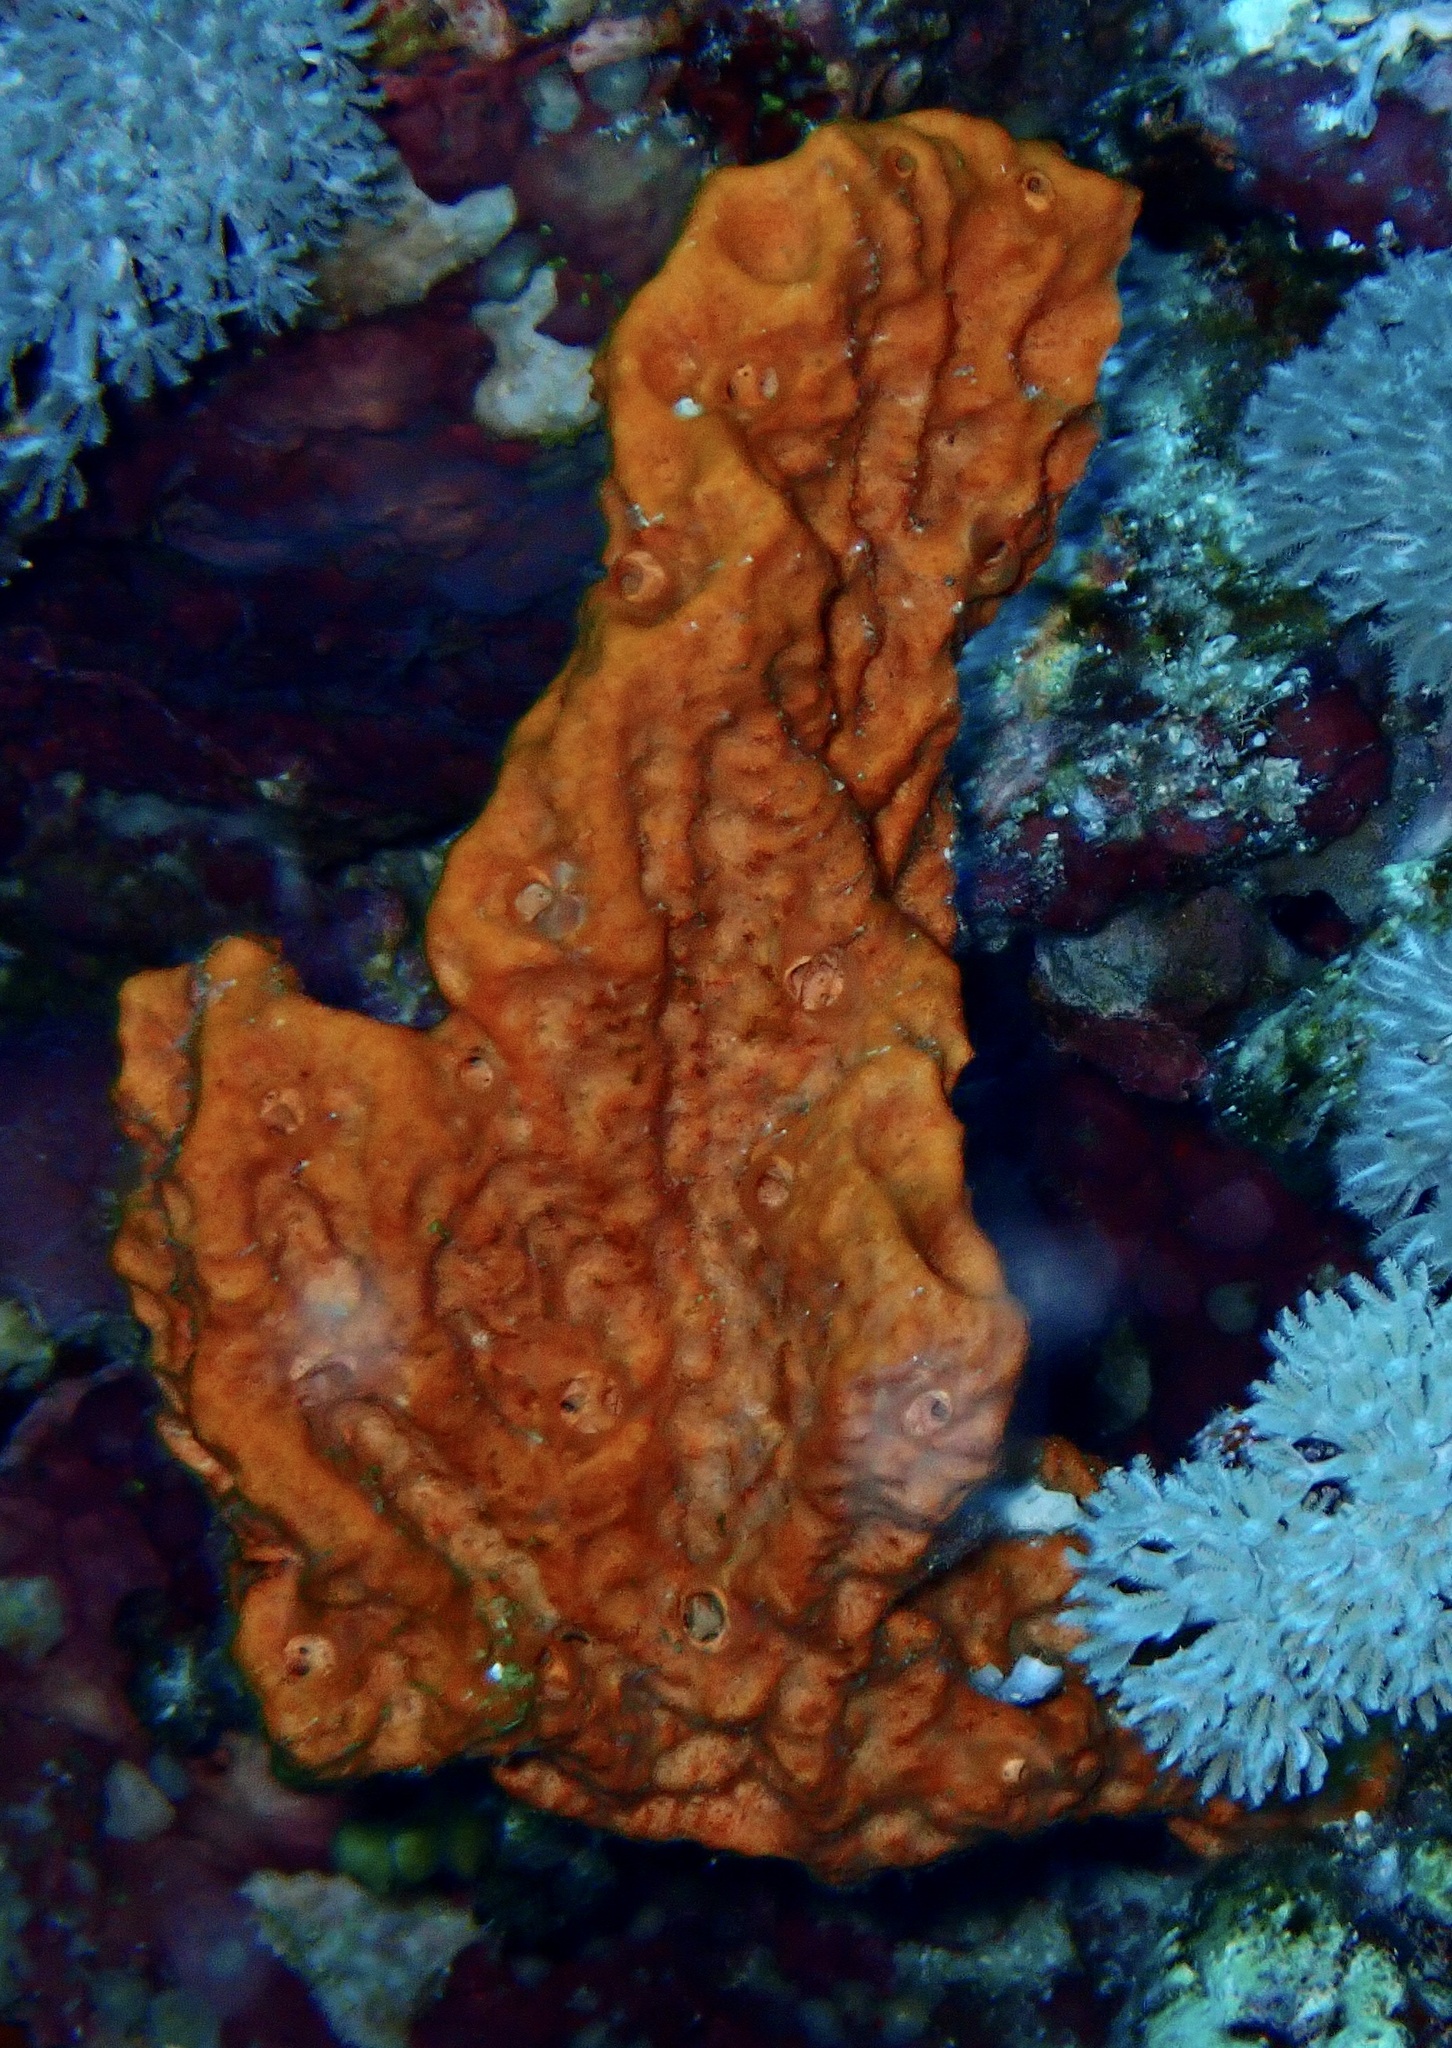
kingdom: Animalia
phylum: Porifera
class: Demospongiae
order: Scopalinida
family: Scopalinidae
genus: Stylissa
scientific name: Stylissa carteri
